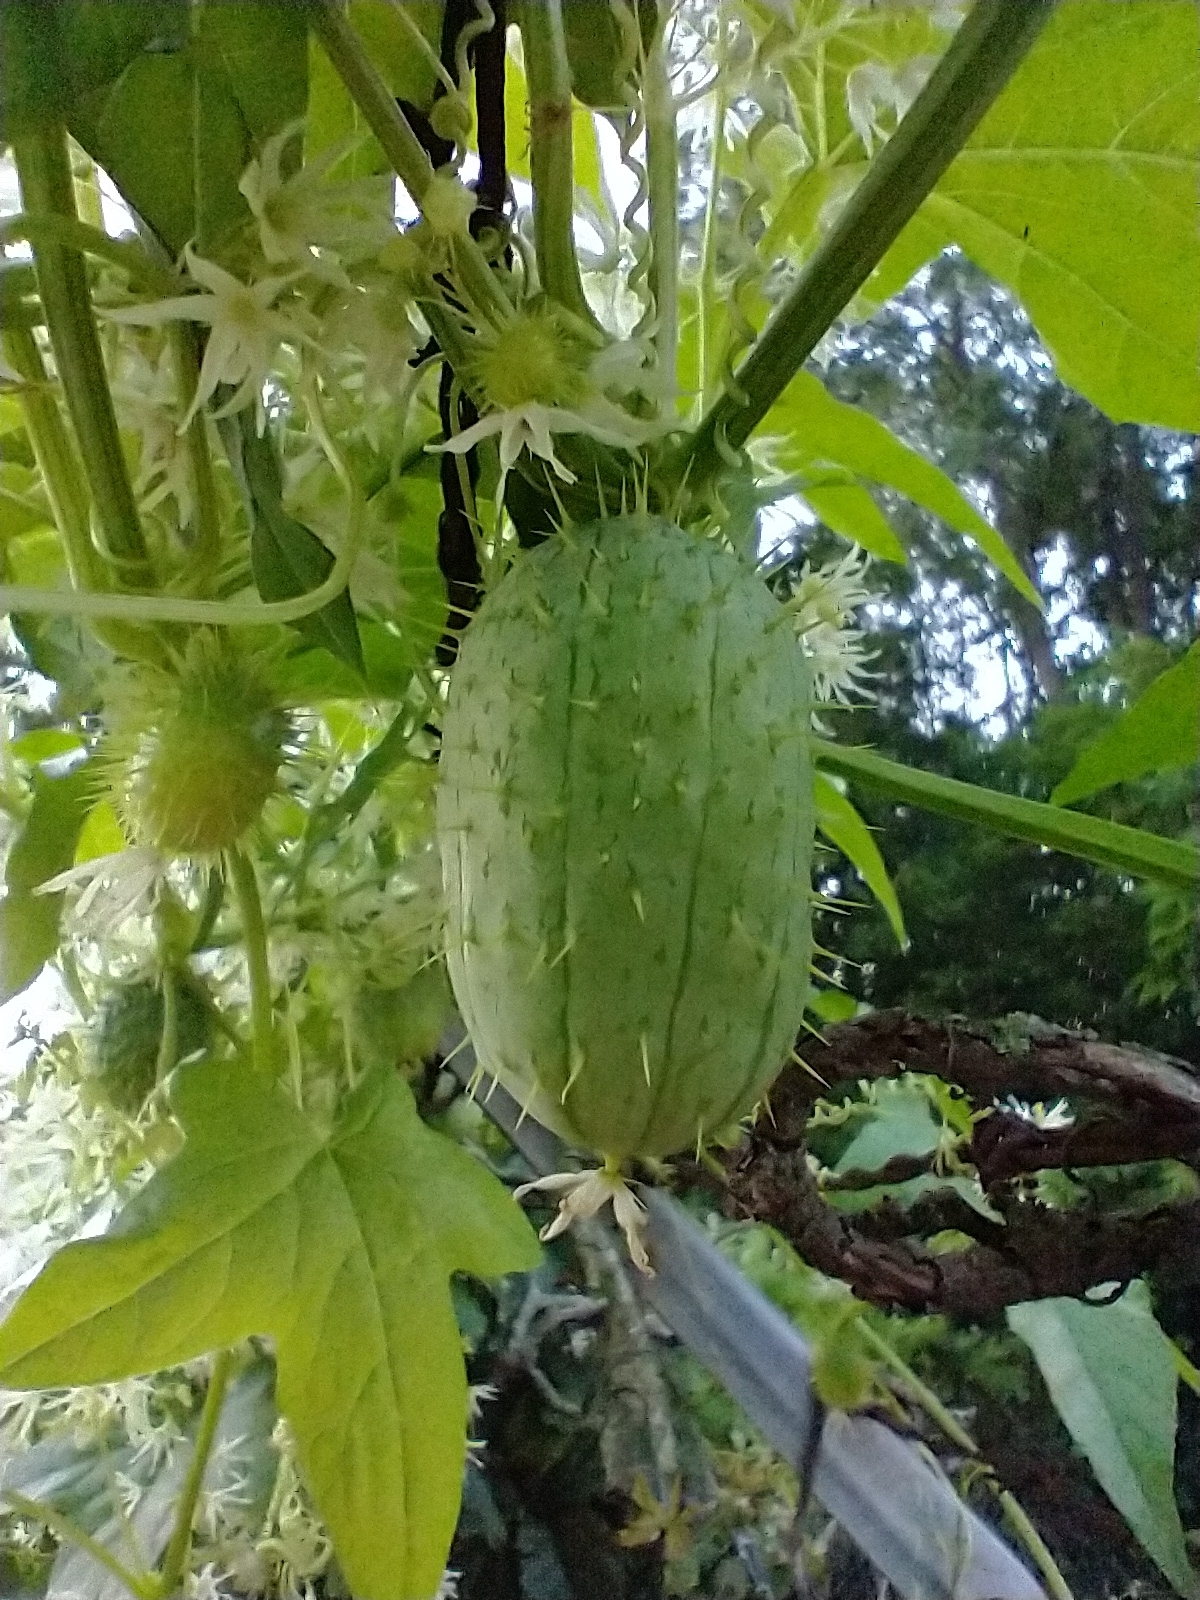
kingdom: Plantae
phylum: Tracheophyta
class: Magnoliopsida
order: Cucurbitales
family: Cucurbitaceae
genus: Echinocystis
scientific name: Echinocystis lobata
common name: Wild cucumber
